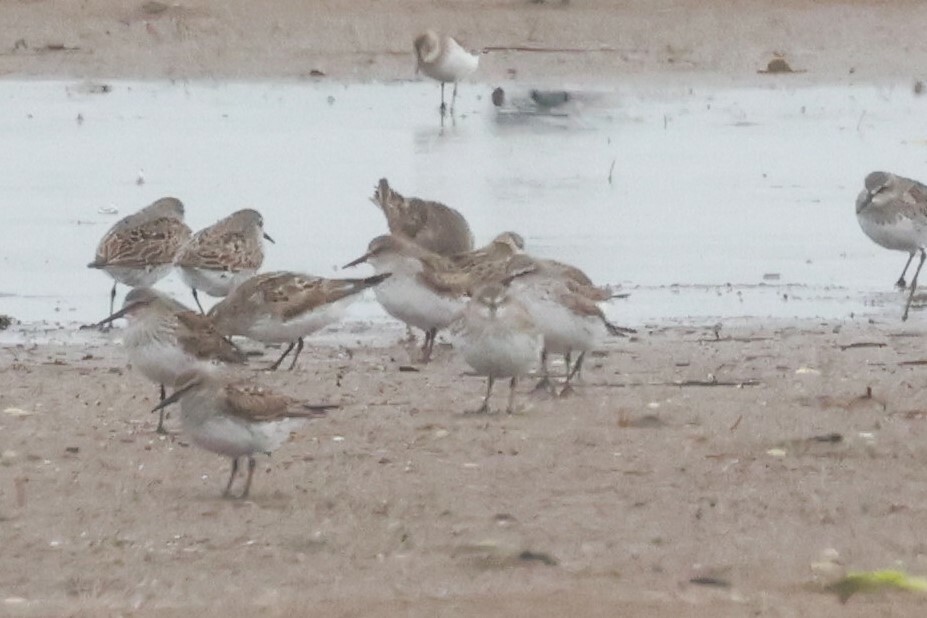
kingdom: Animalia
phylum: Chordata
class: Aves
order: Charadriiformes
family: Scolopacidae
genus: Calidris
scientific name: Calidris fuscicollis
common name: White-rumped sandpiper
